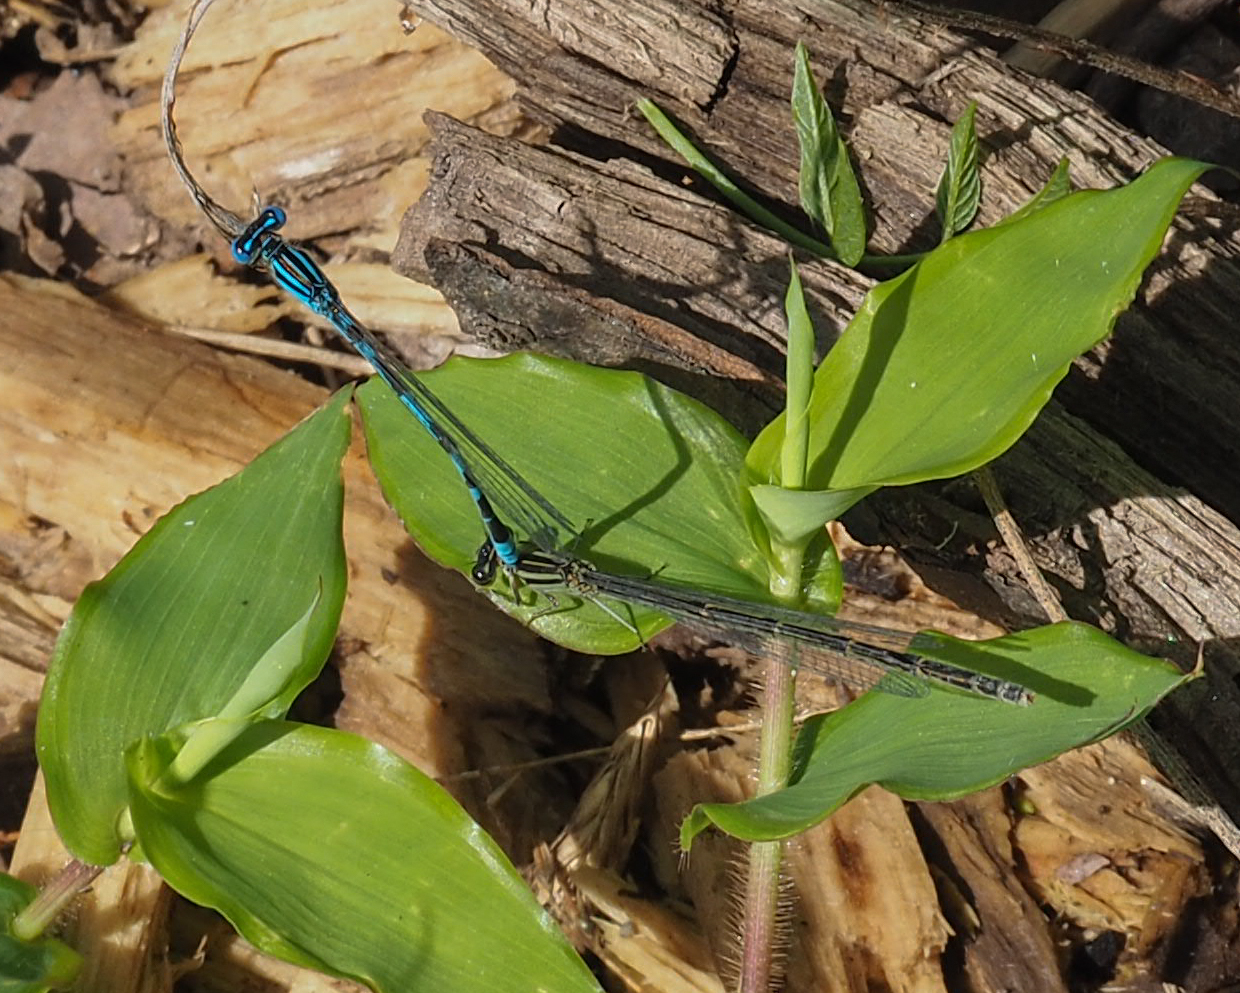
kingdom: Animalia
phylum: Arthropoda
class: Insecta
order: Odonata
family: Coenagrionidae
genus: Enallagma
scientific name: Enallagma durum
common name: Big bluet
